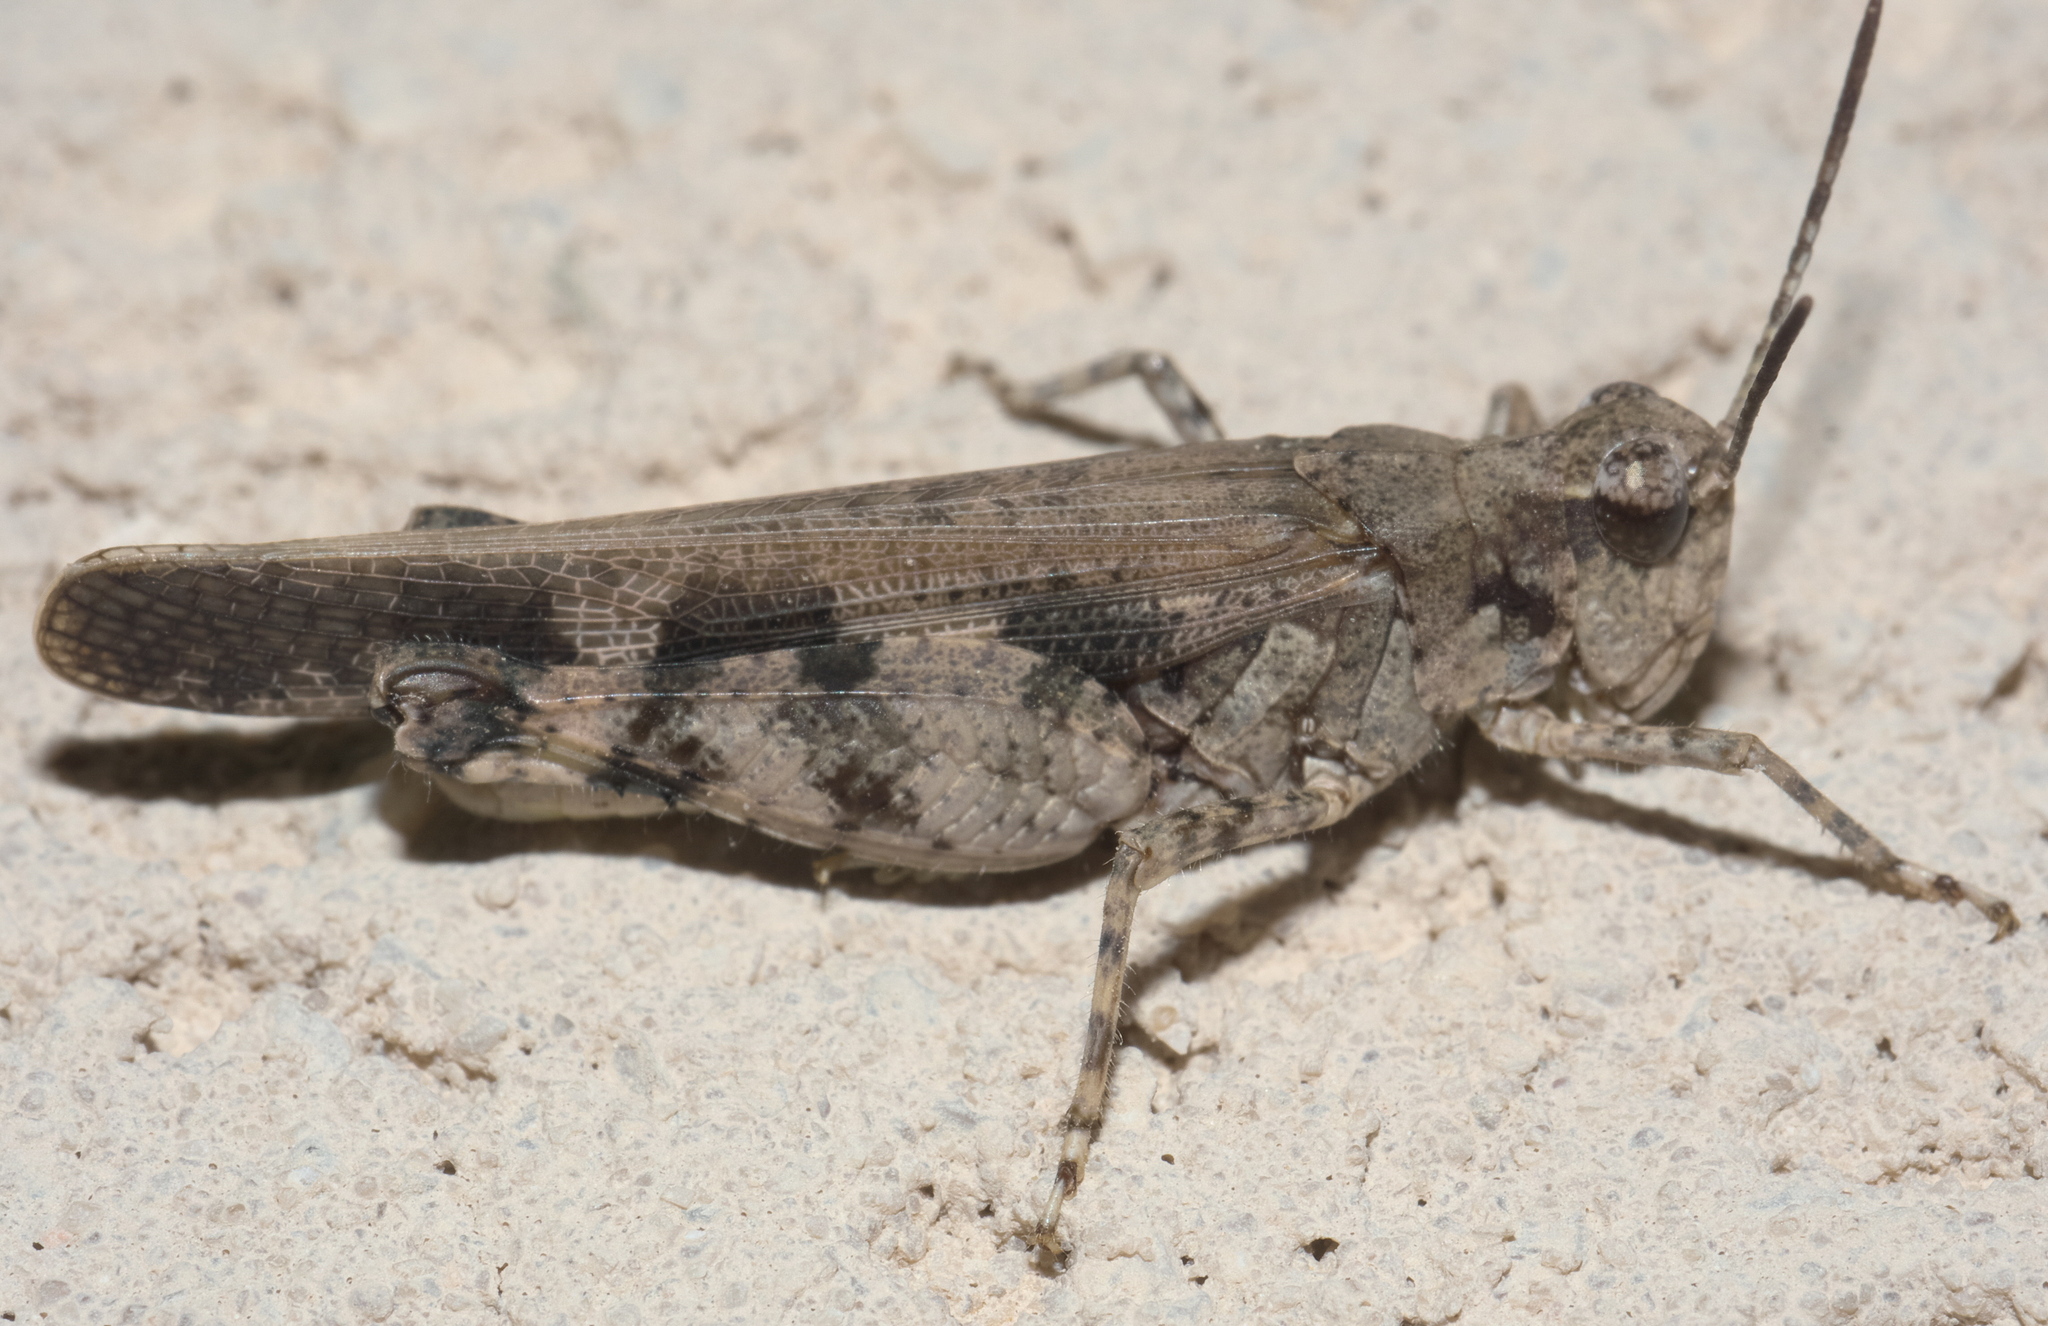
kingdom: Animalia
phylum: Arthropoda
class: Insecta
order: Orthoptera
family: Acrididae
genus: Nebulatettix
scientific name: Nebulatettix subgracilis
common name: Southwestern dusky grasshopper
